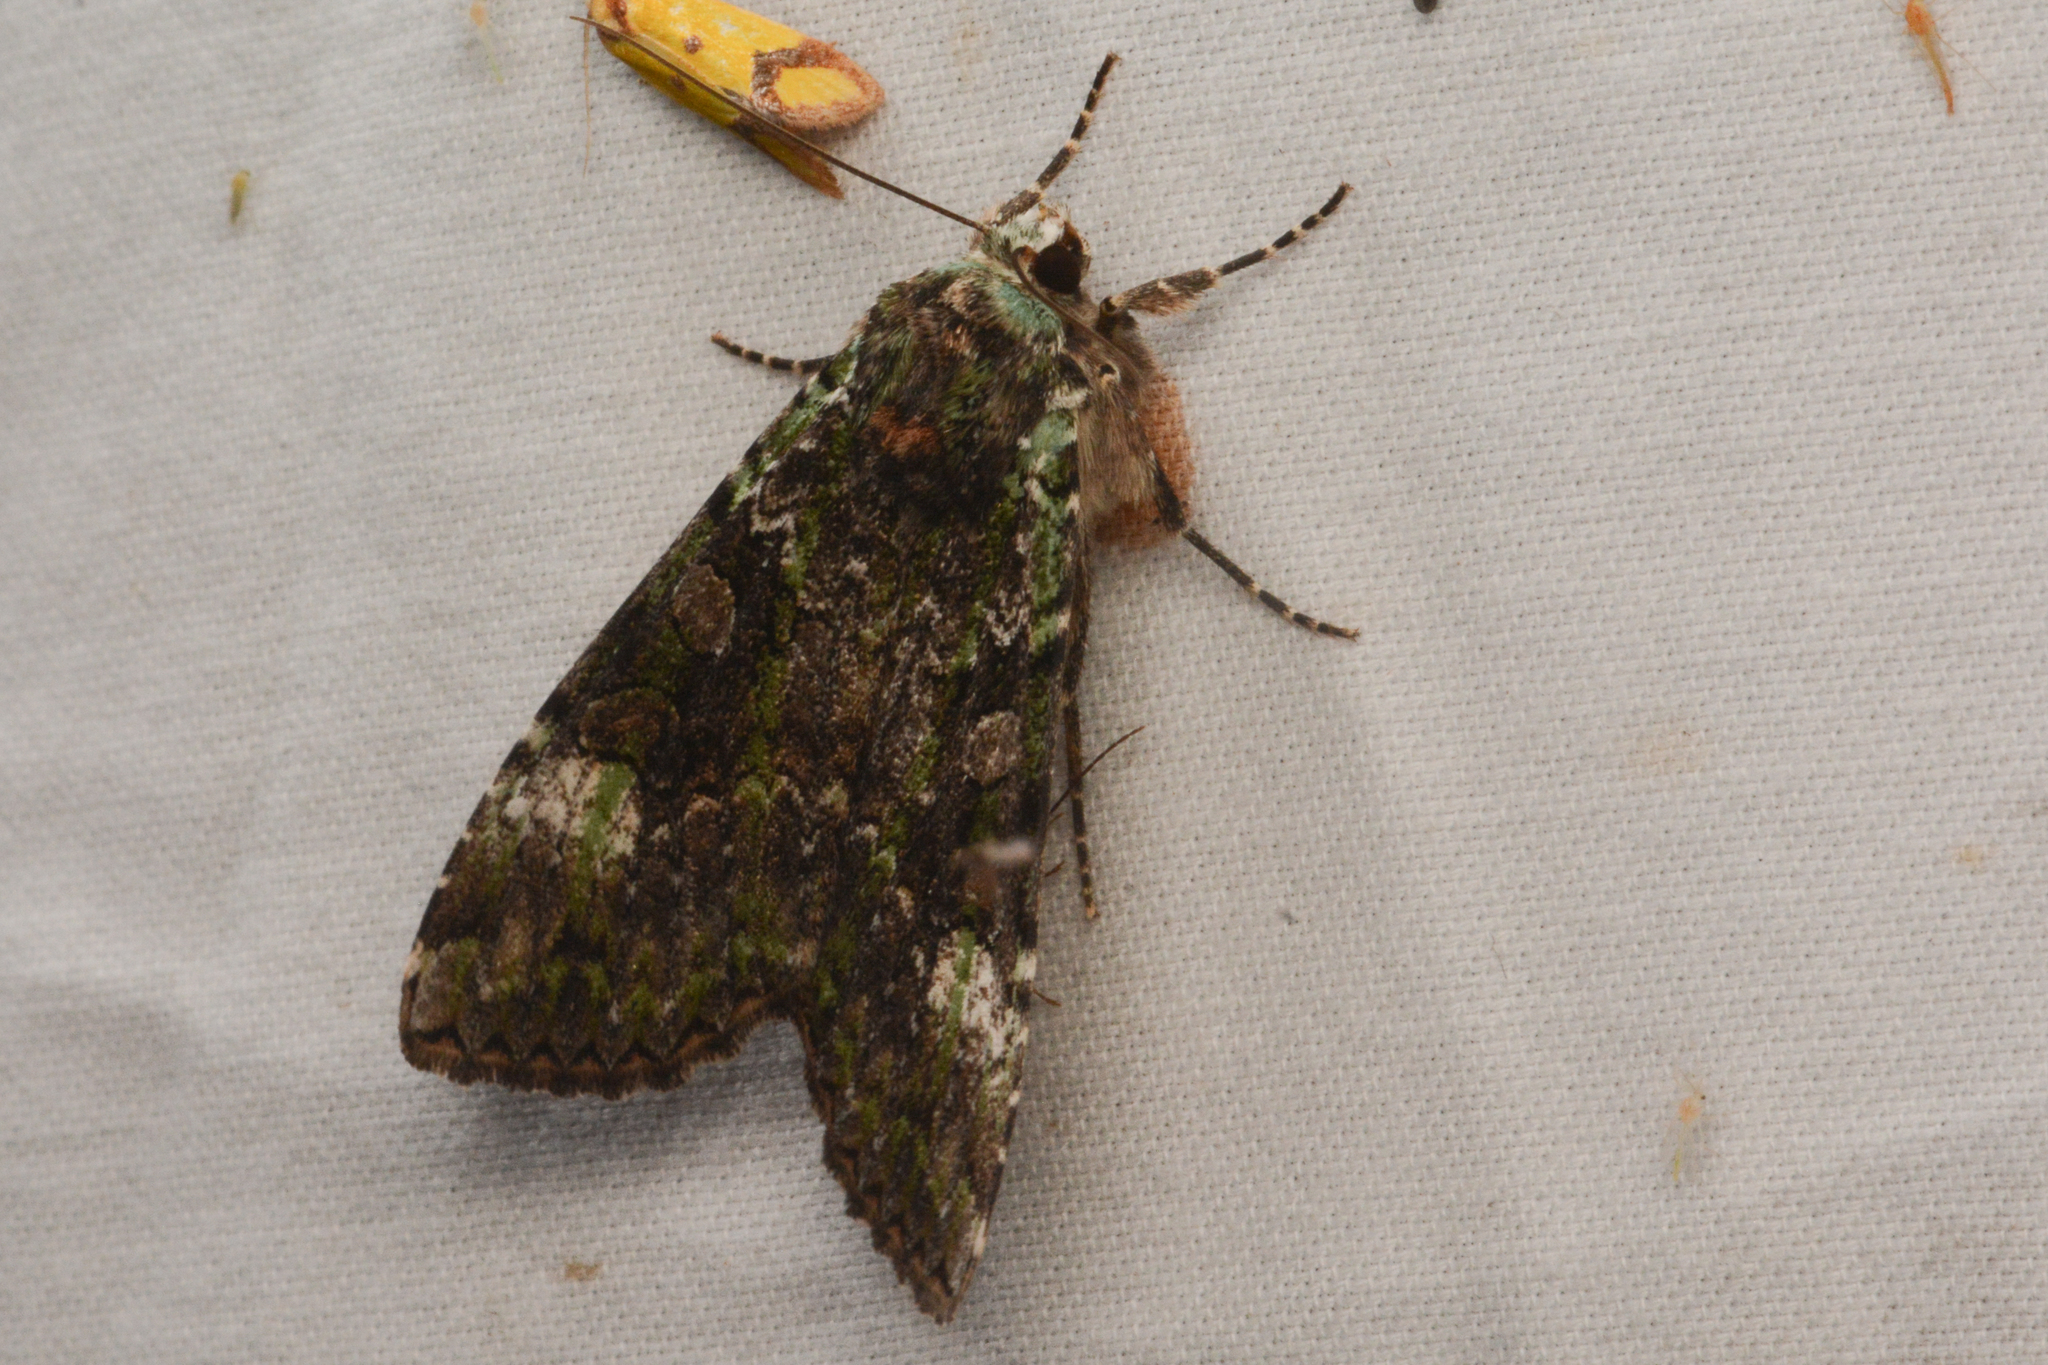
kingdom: Animalia
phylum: Arthropoda
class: Insecta
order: Lepidoptera
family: Noctuidae
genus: Anaplectoides
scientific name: Anaplectoides prasina
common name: Green arches
